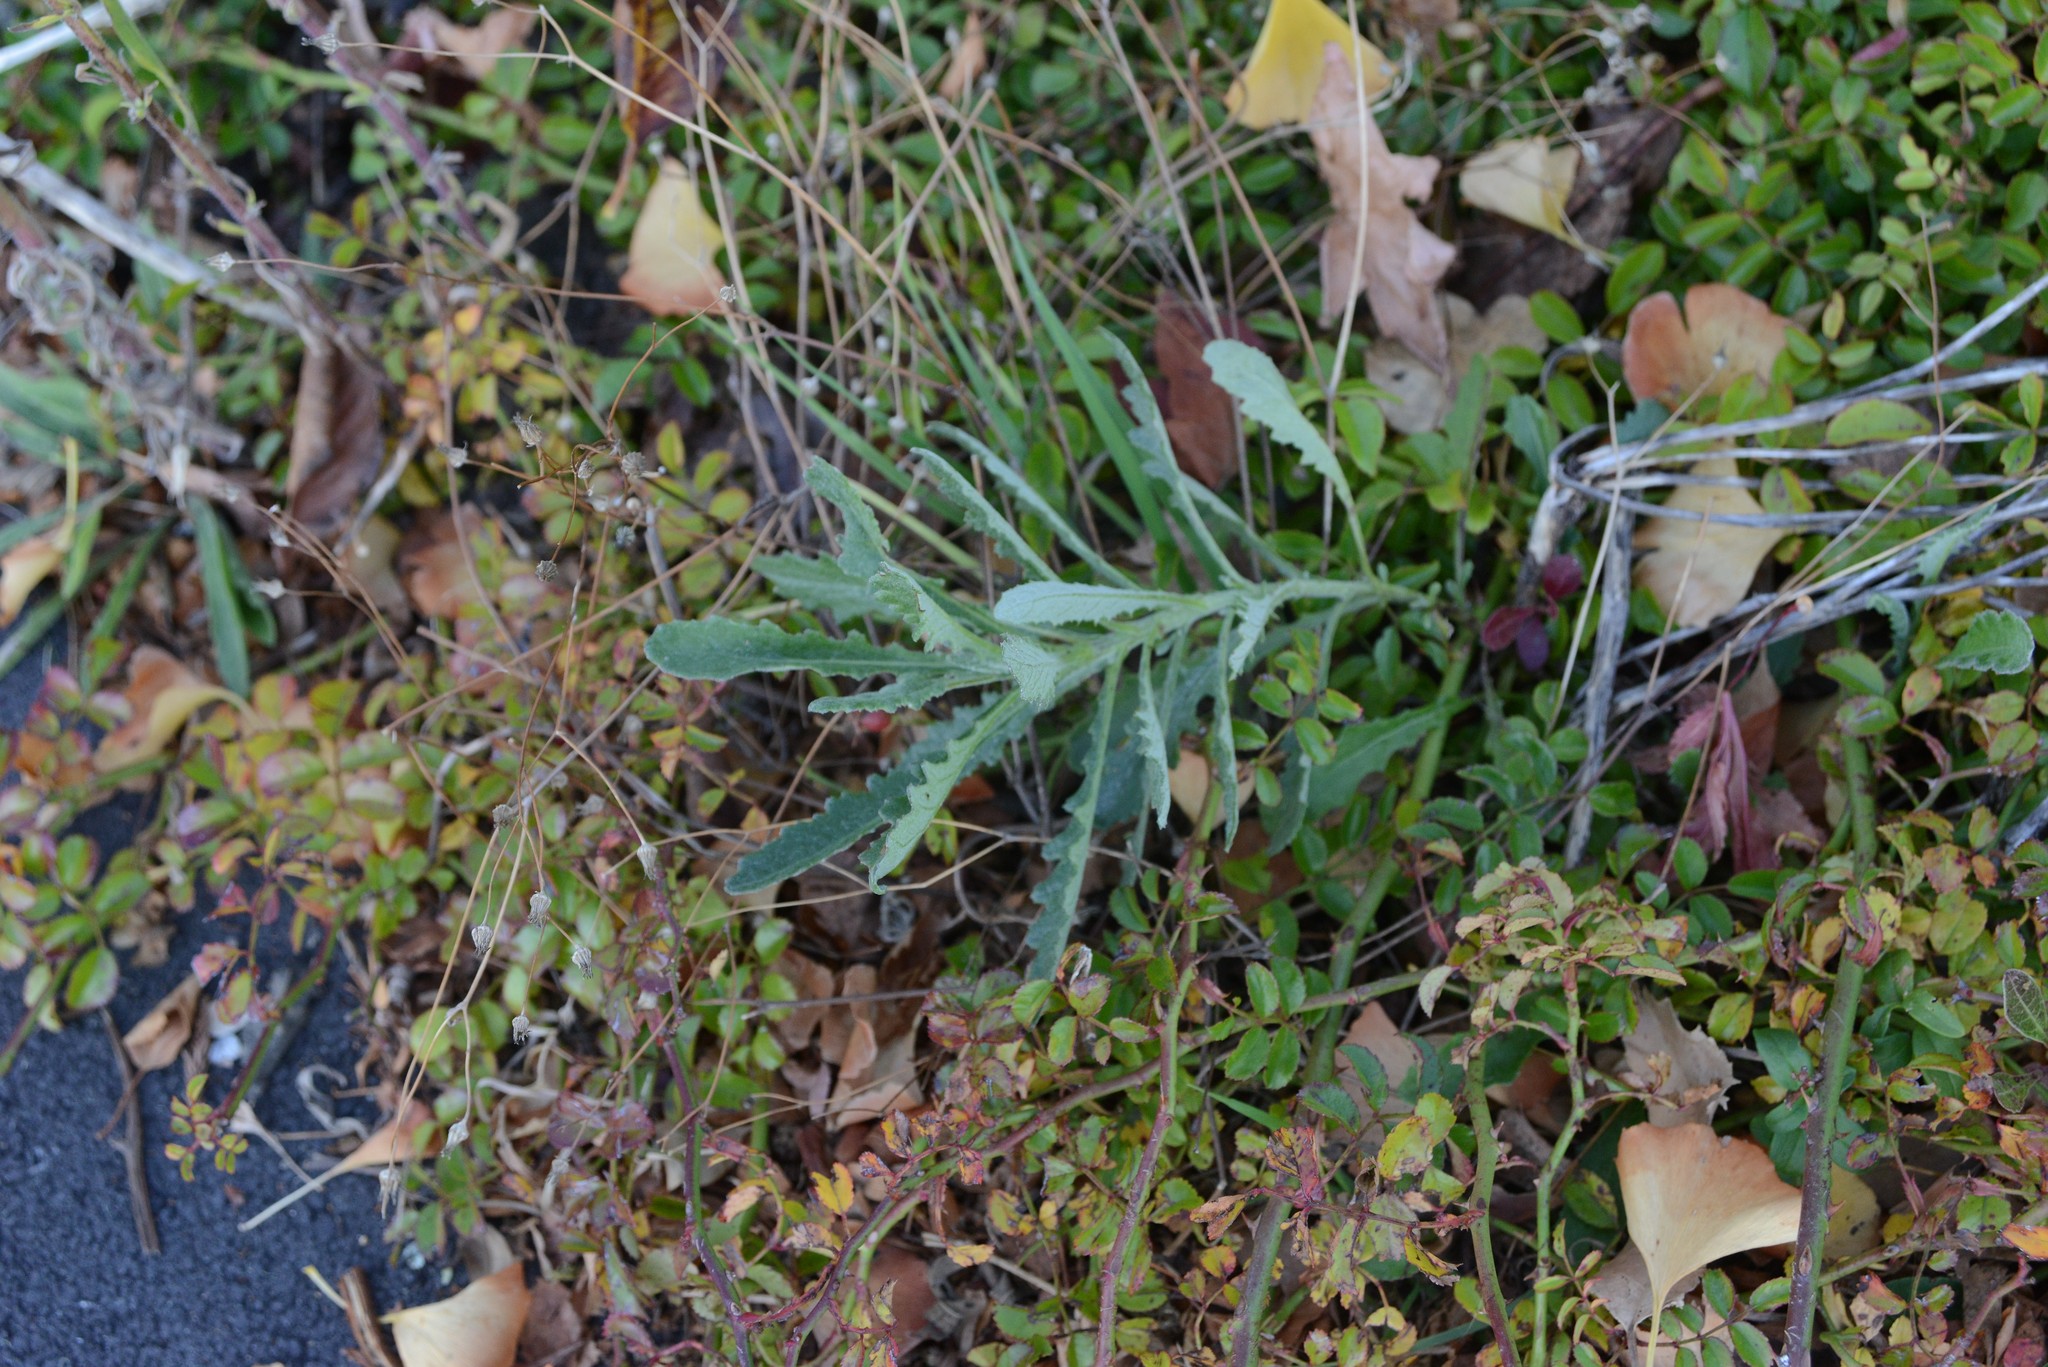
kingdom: Plantae
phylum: Tracheophyta
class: Magnoliopsida
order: Asterales
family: Asteraceae
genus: Senecio
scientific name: Senecio glomeratus
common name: Cutleaf burnweed
